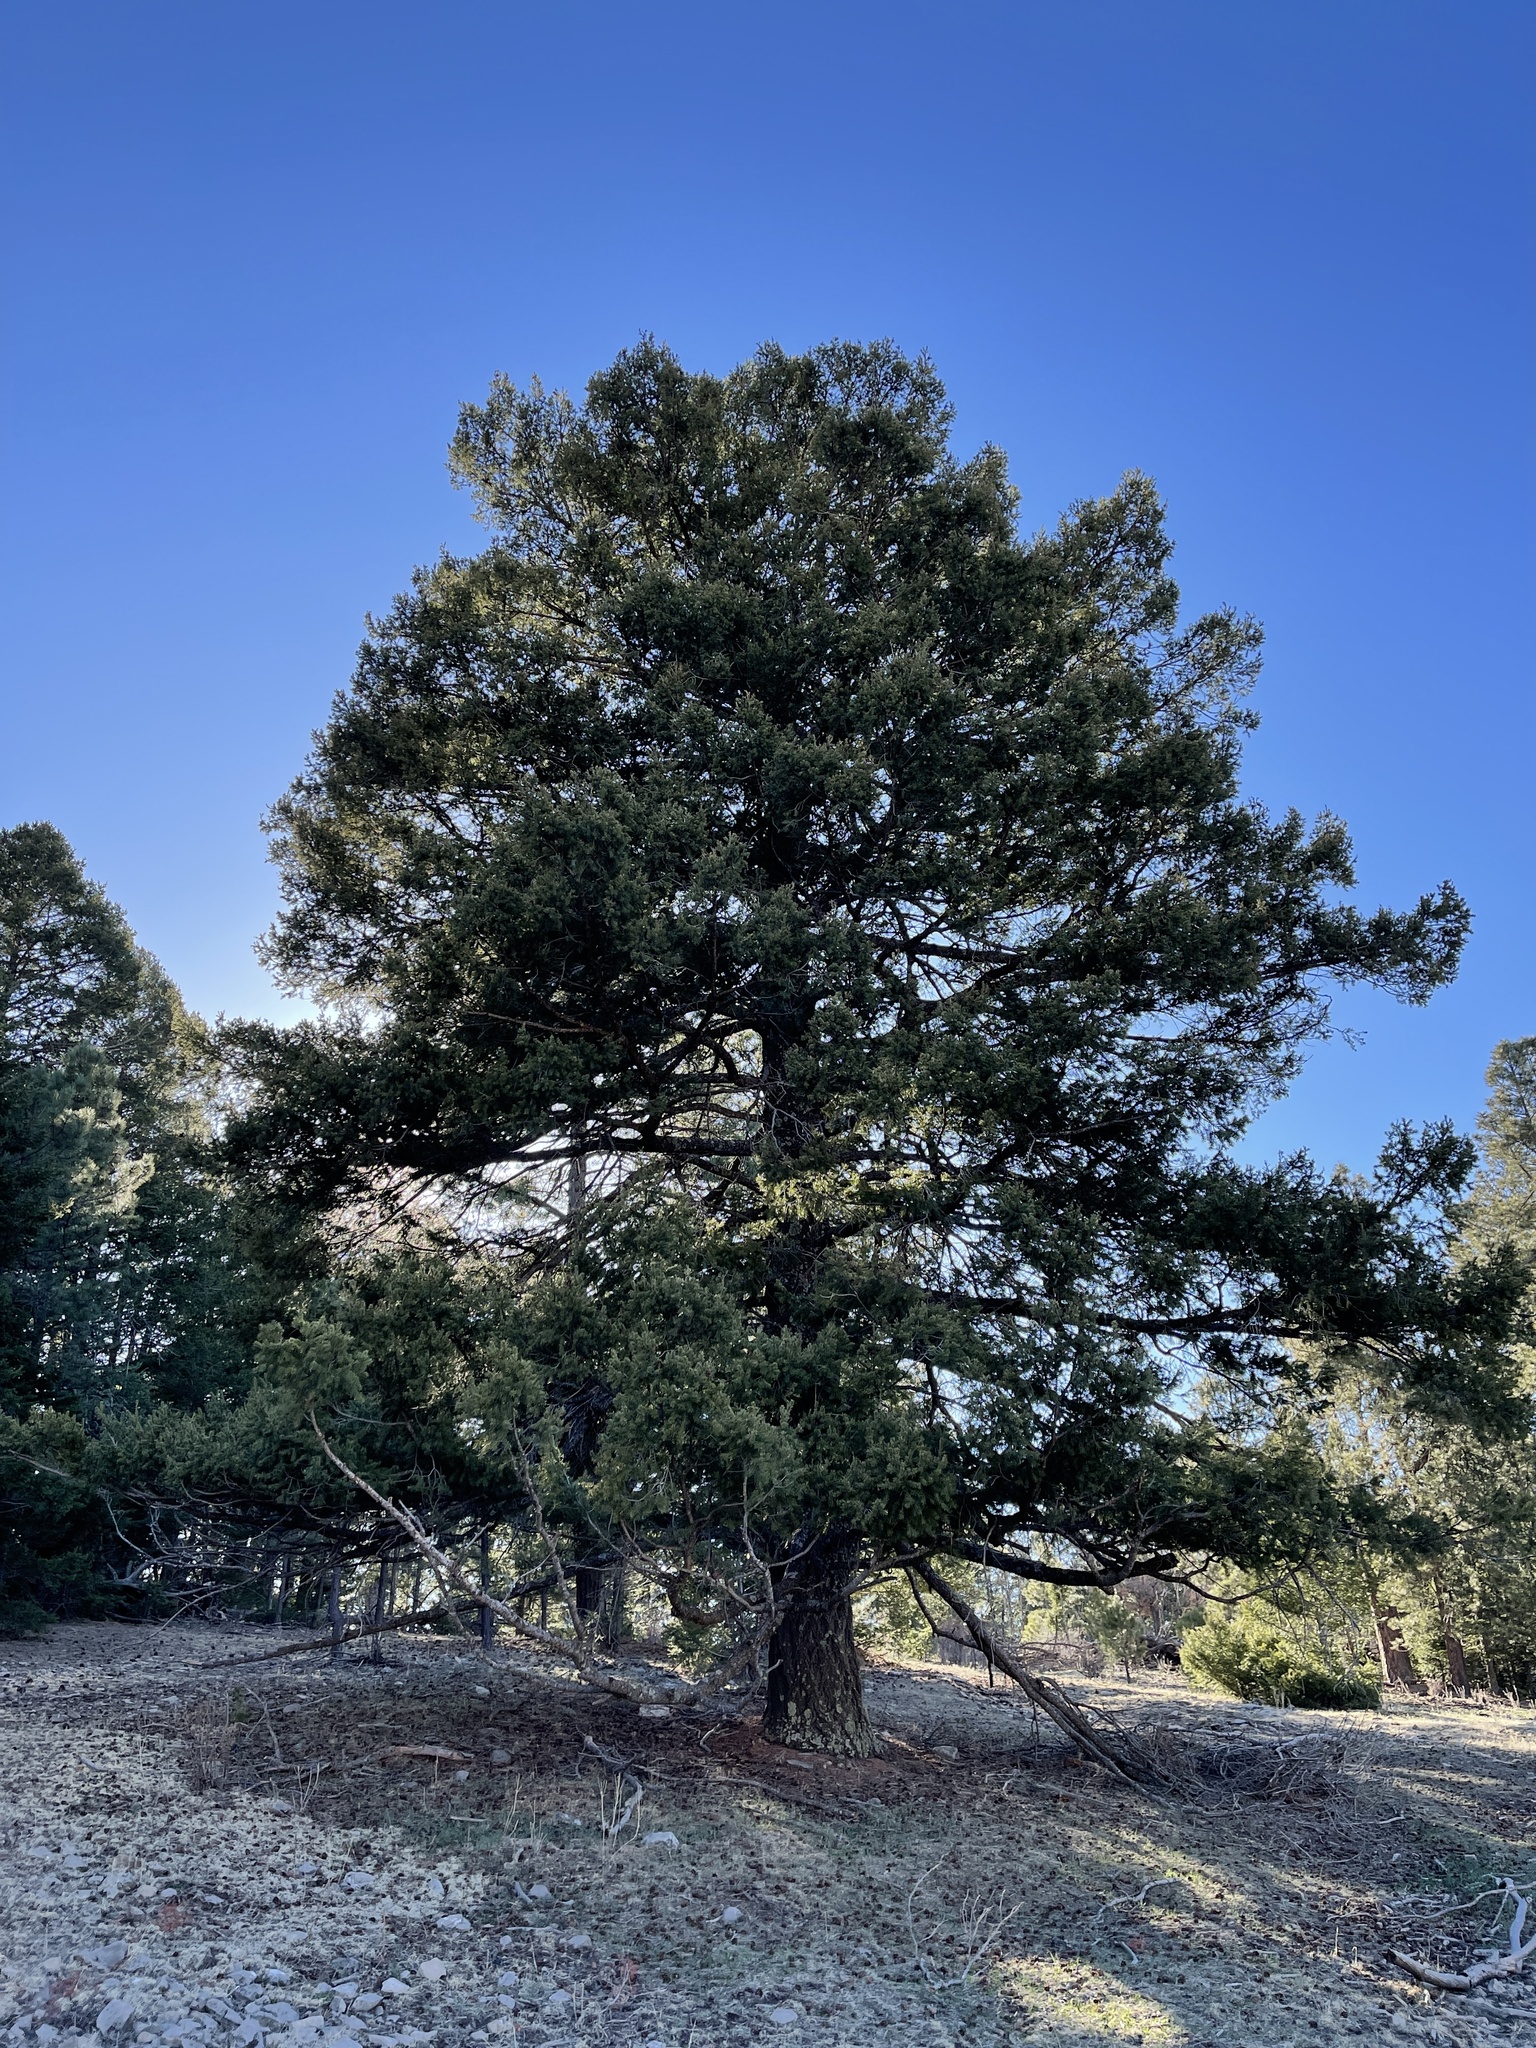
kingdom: Plantae
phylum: Tracheophyta
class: Pinopsida
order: Pinales
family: Pinaceae
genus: Pseudotsuga
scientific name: Pseudotsuga menziesii
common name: Douglas fir
